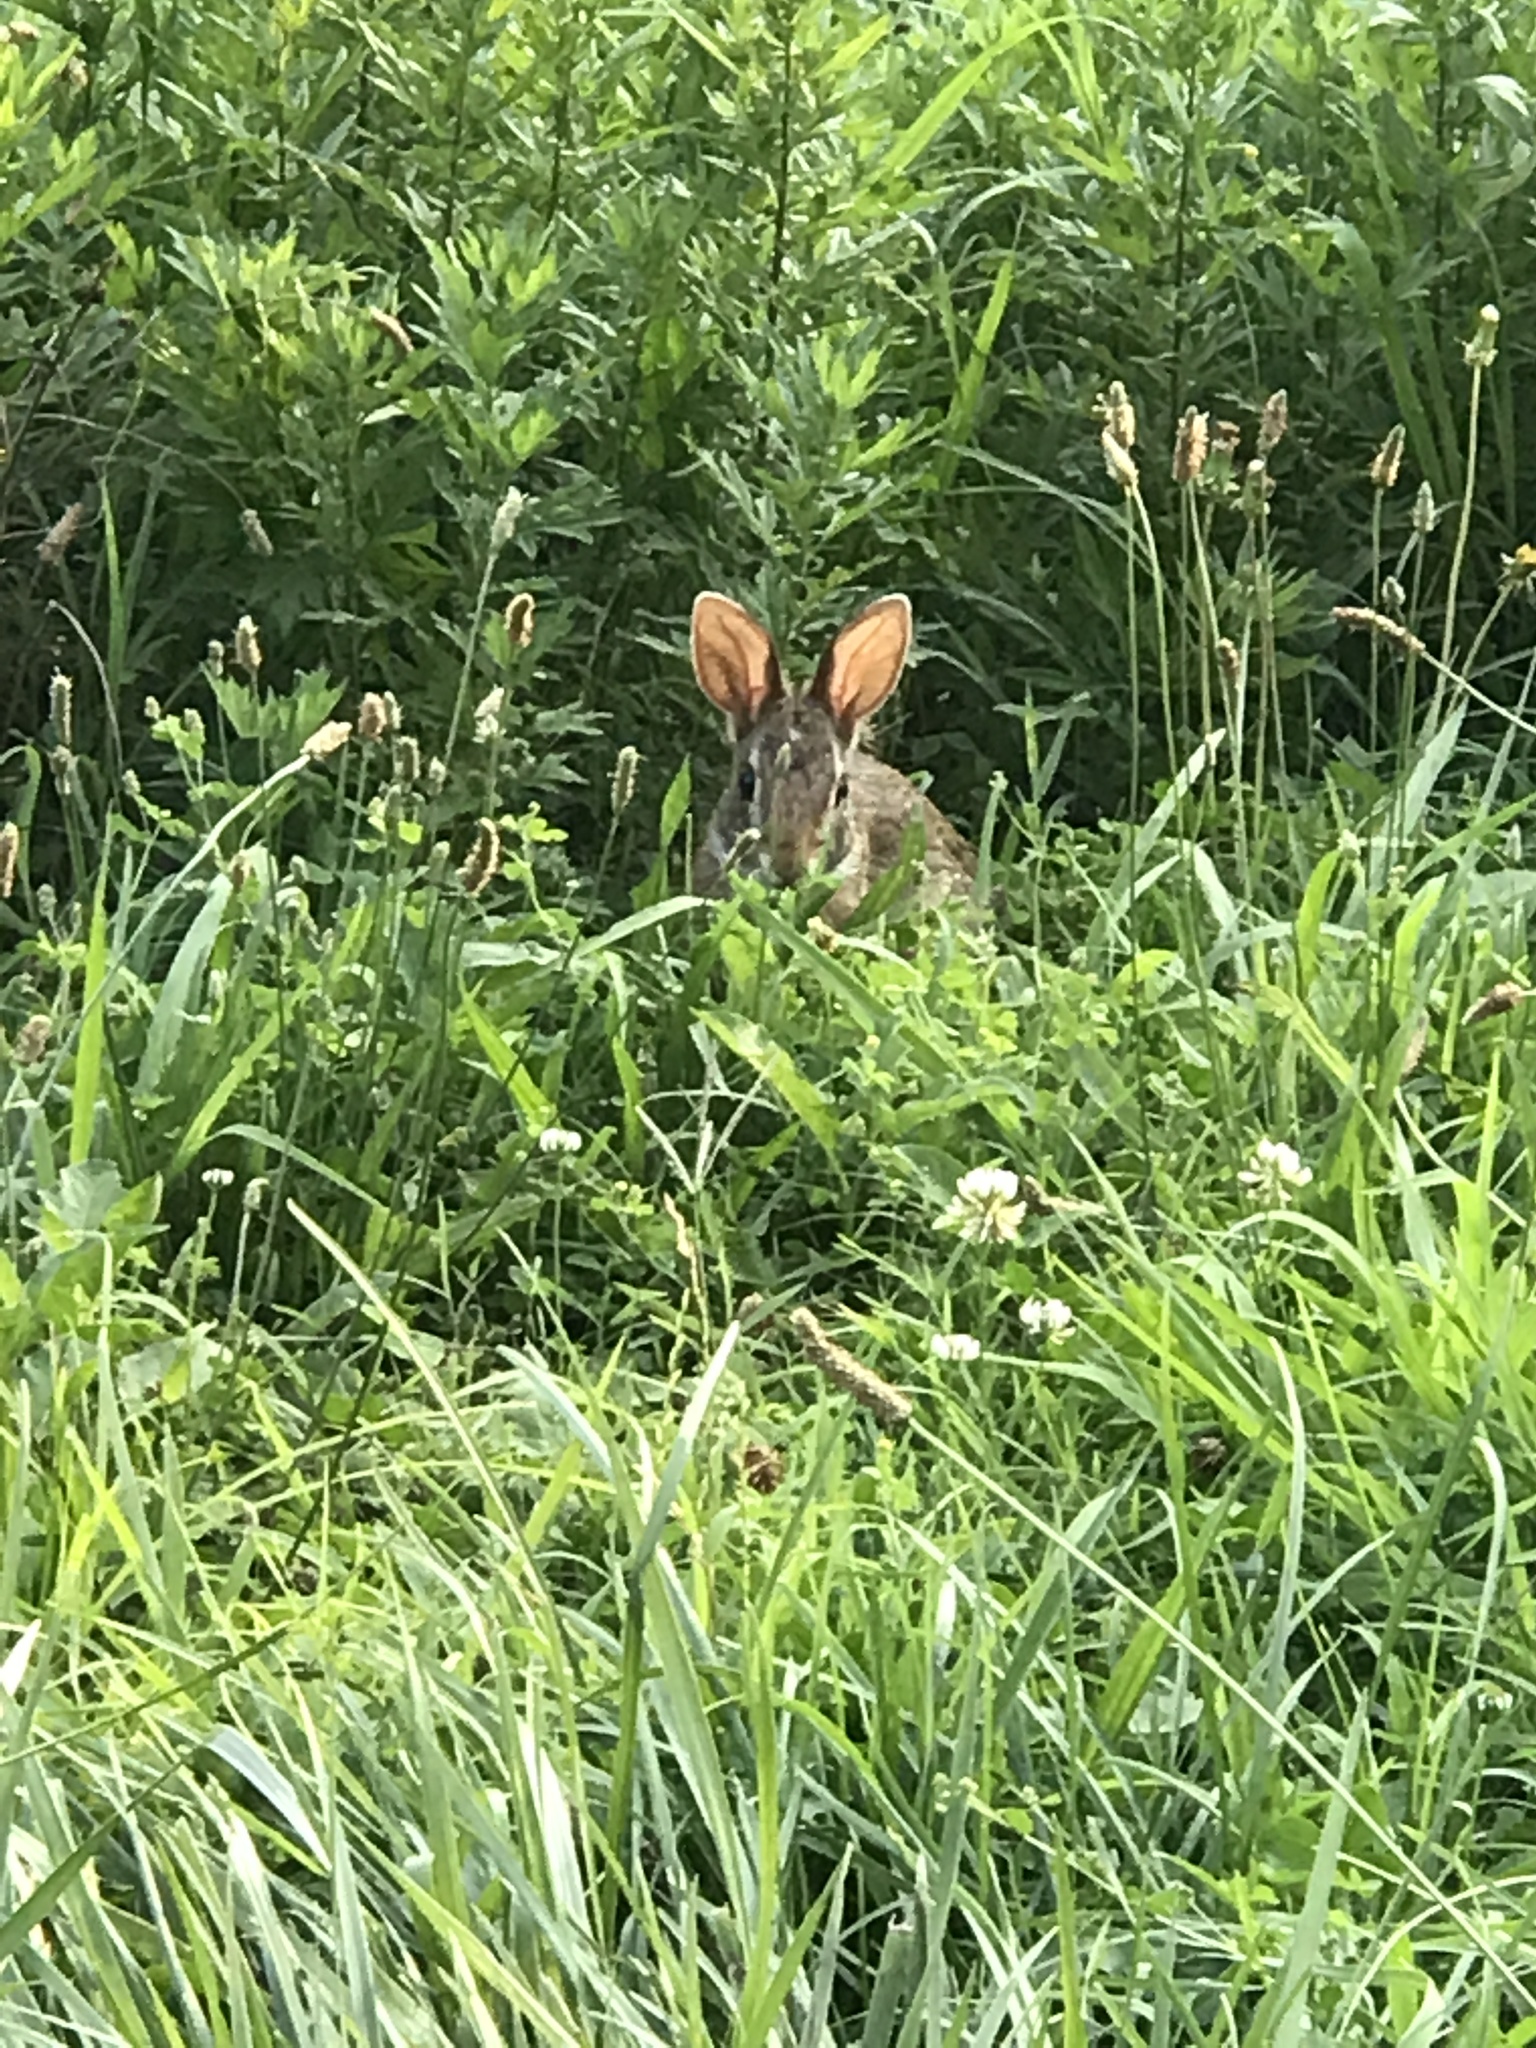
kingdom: Animalia
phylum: Chordata
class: Mammalia
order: Lagomorpha
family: Leporidae
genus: Sylvilagus
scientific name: Sylvilagus floridanus
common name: Eastern cottontail
